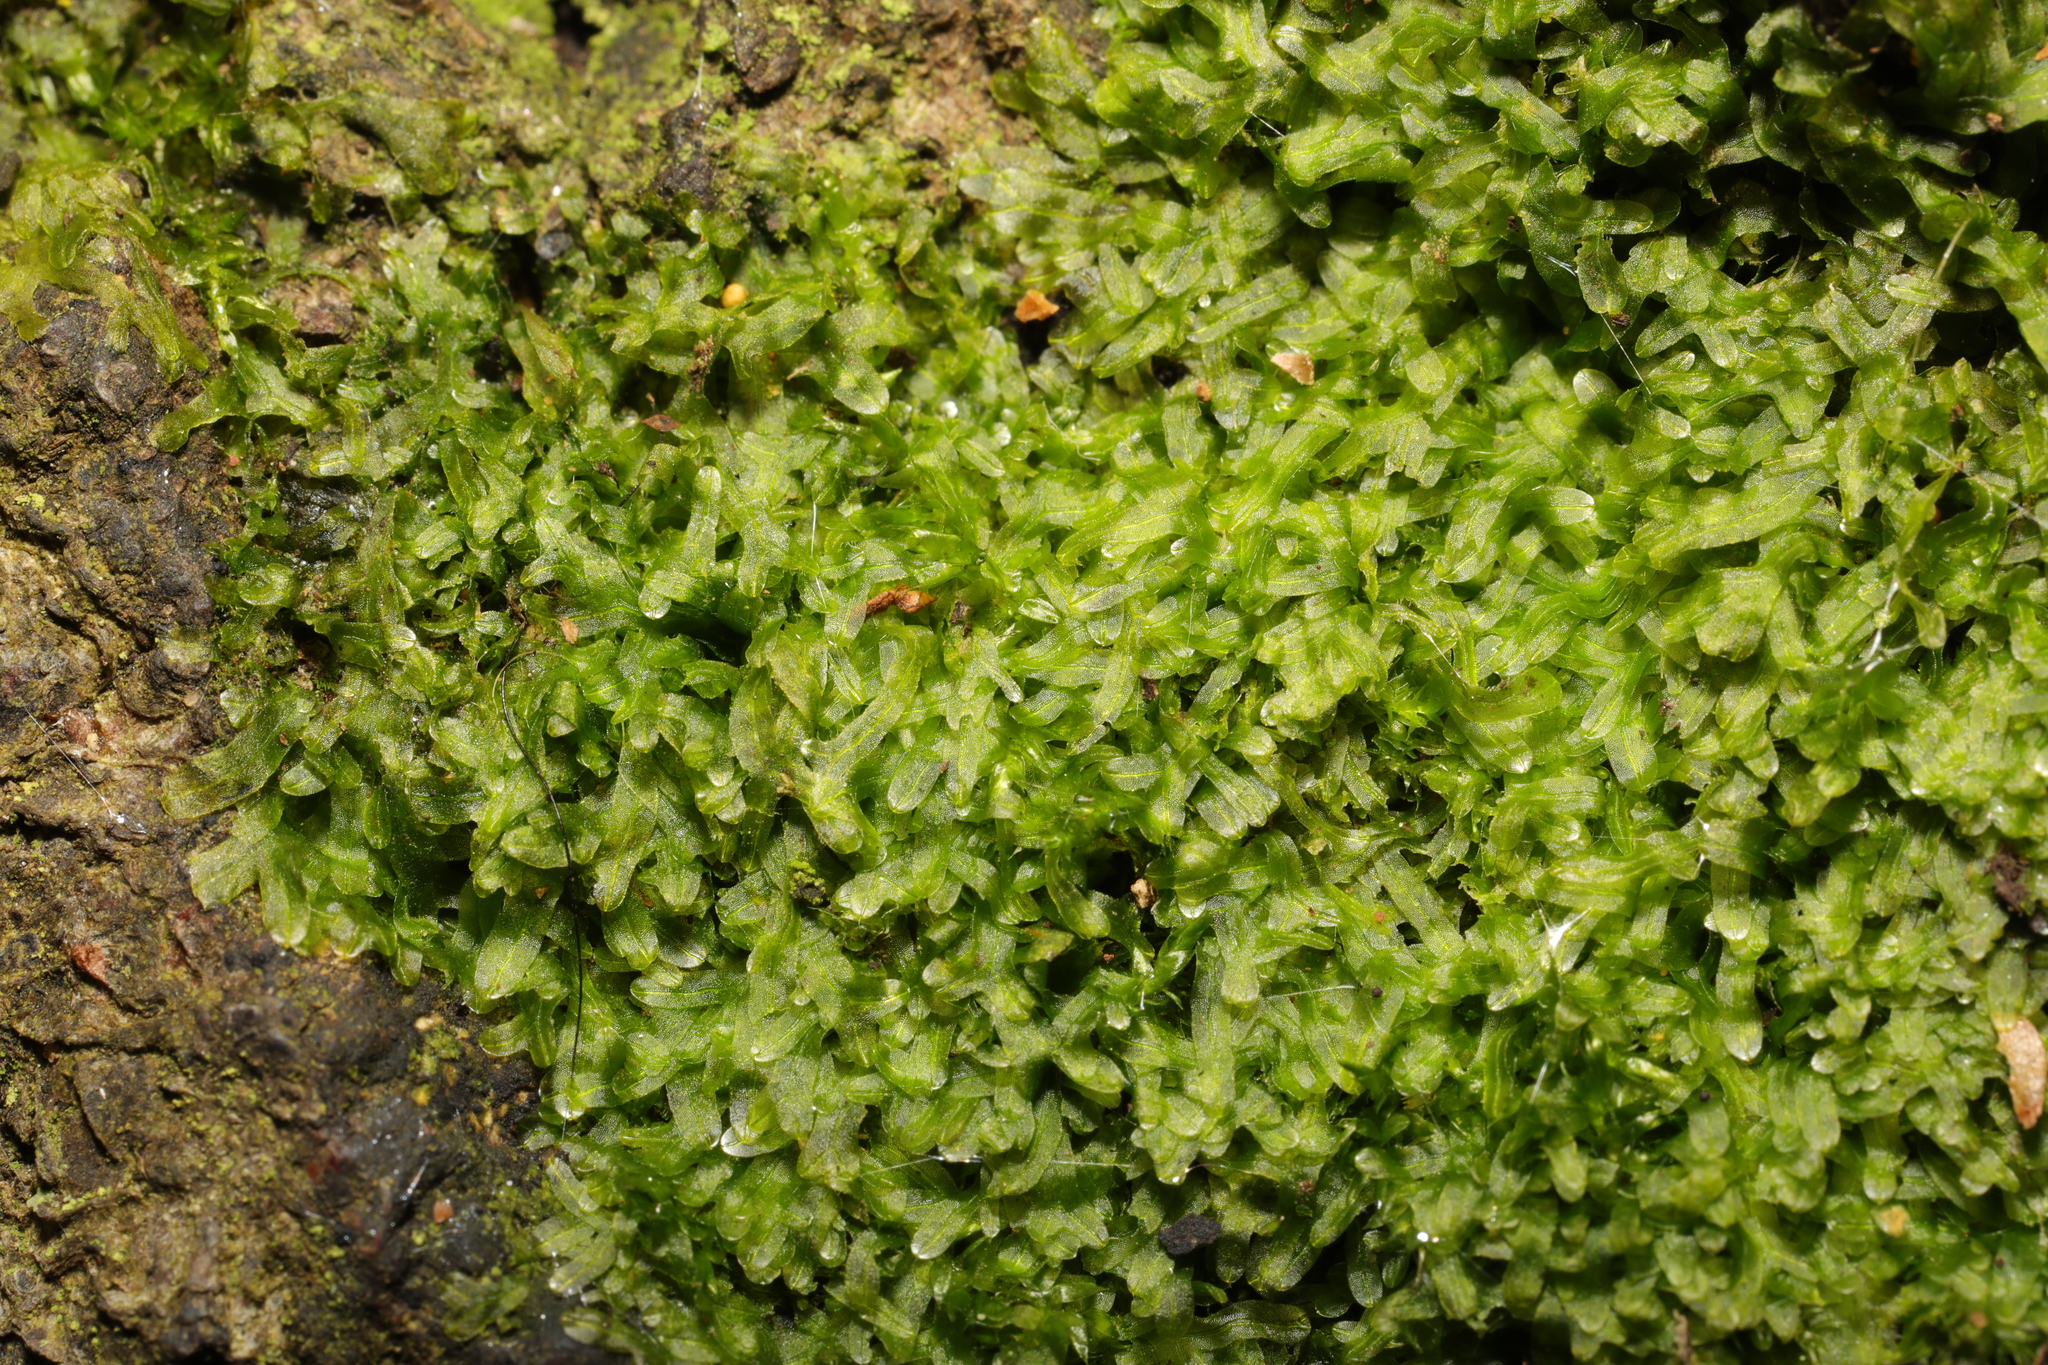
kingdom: Plantae
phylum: Marchantiophyta
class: Jungermanniopsida
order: Metzgeriales
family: Metzgeriaceae
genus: Metzgeria
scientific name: Metzgeria furcata
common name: Forked veilwort
